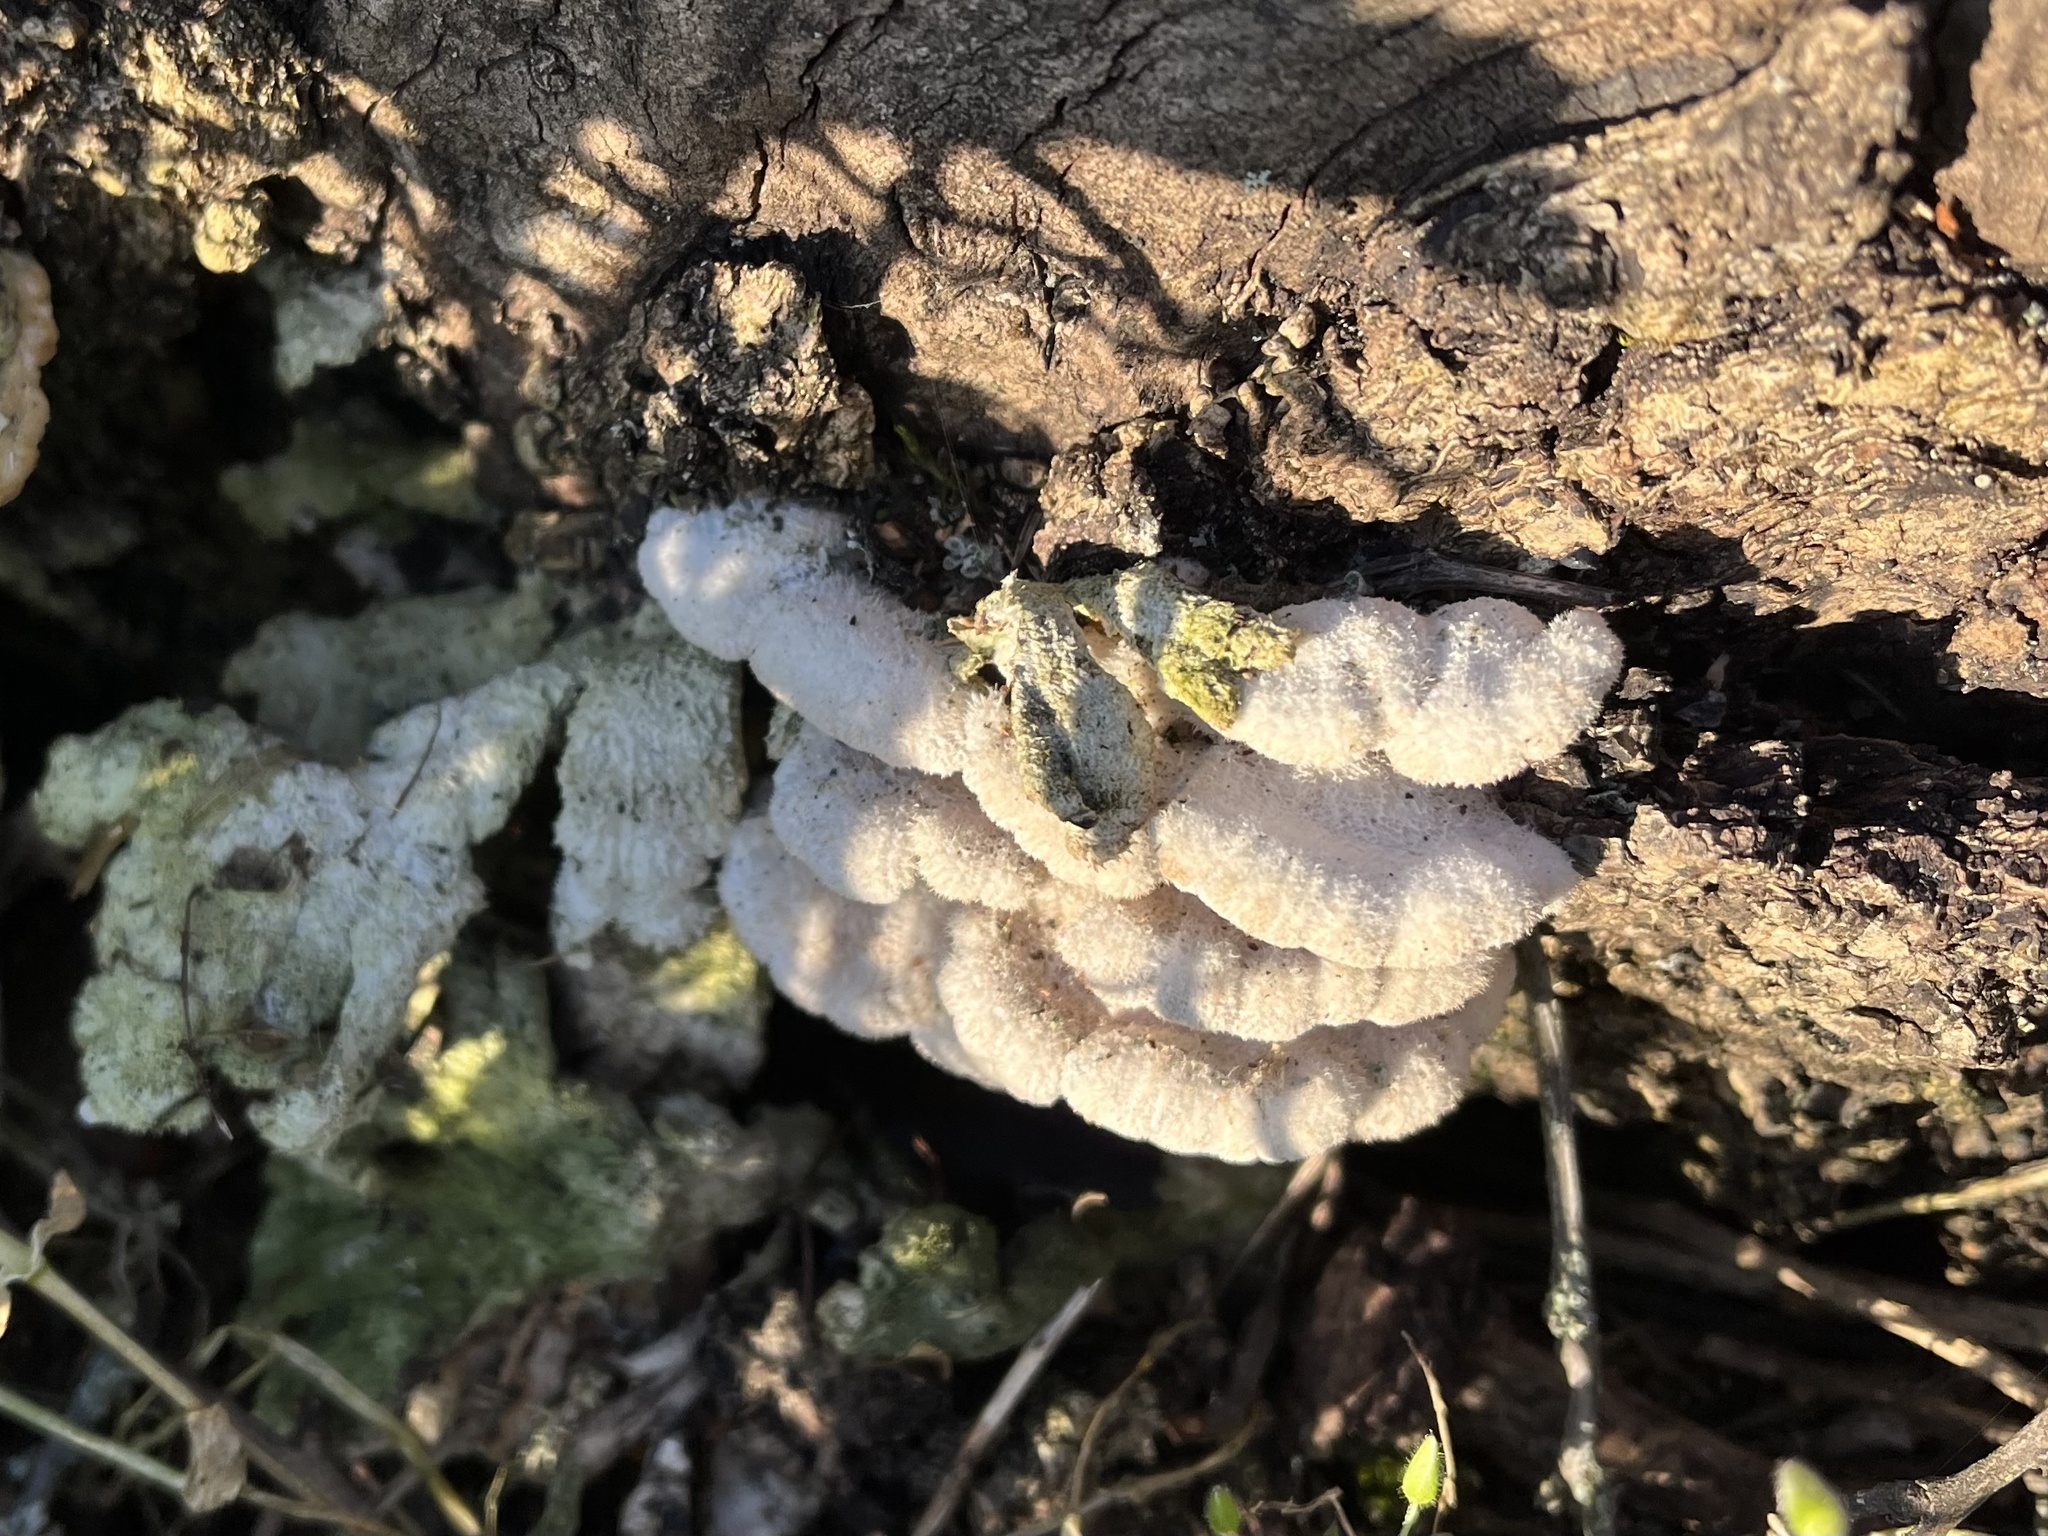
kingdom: Fungi
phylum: Basidiomycota
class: Agaricomycetes
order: Agaricales
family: Schizophyllaceae
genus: Schizophyllum
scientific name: Schizophyllum commune
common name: Common porecrust
